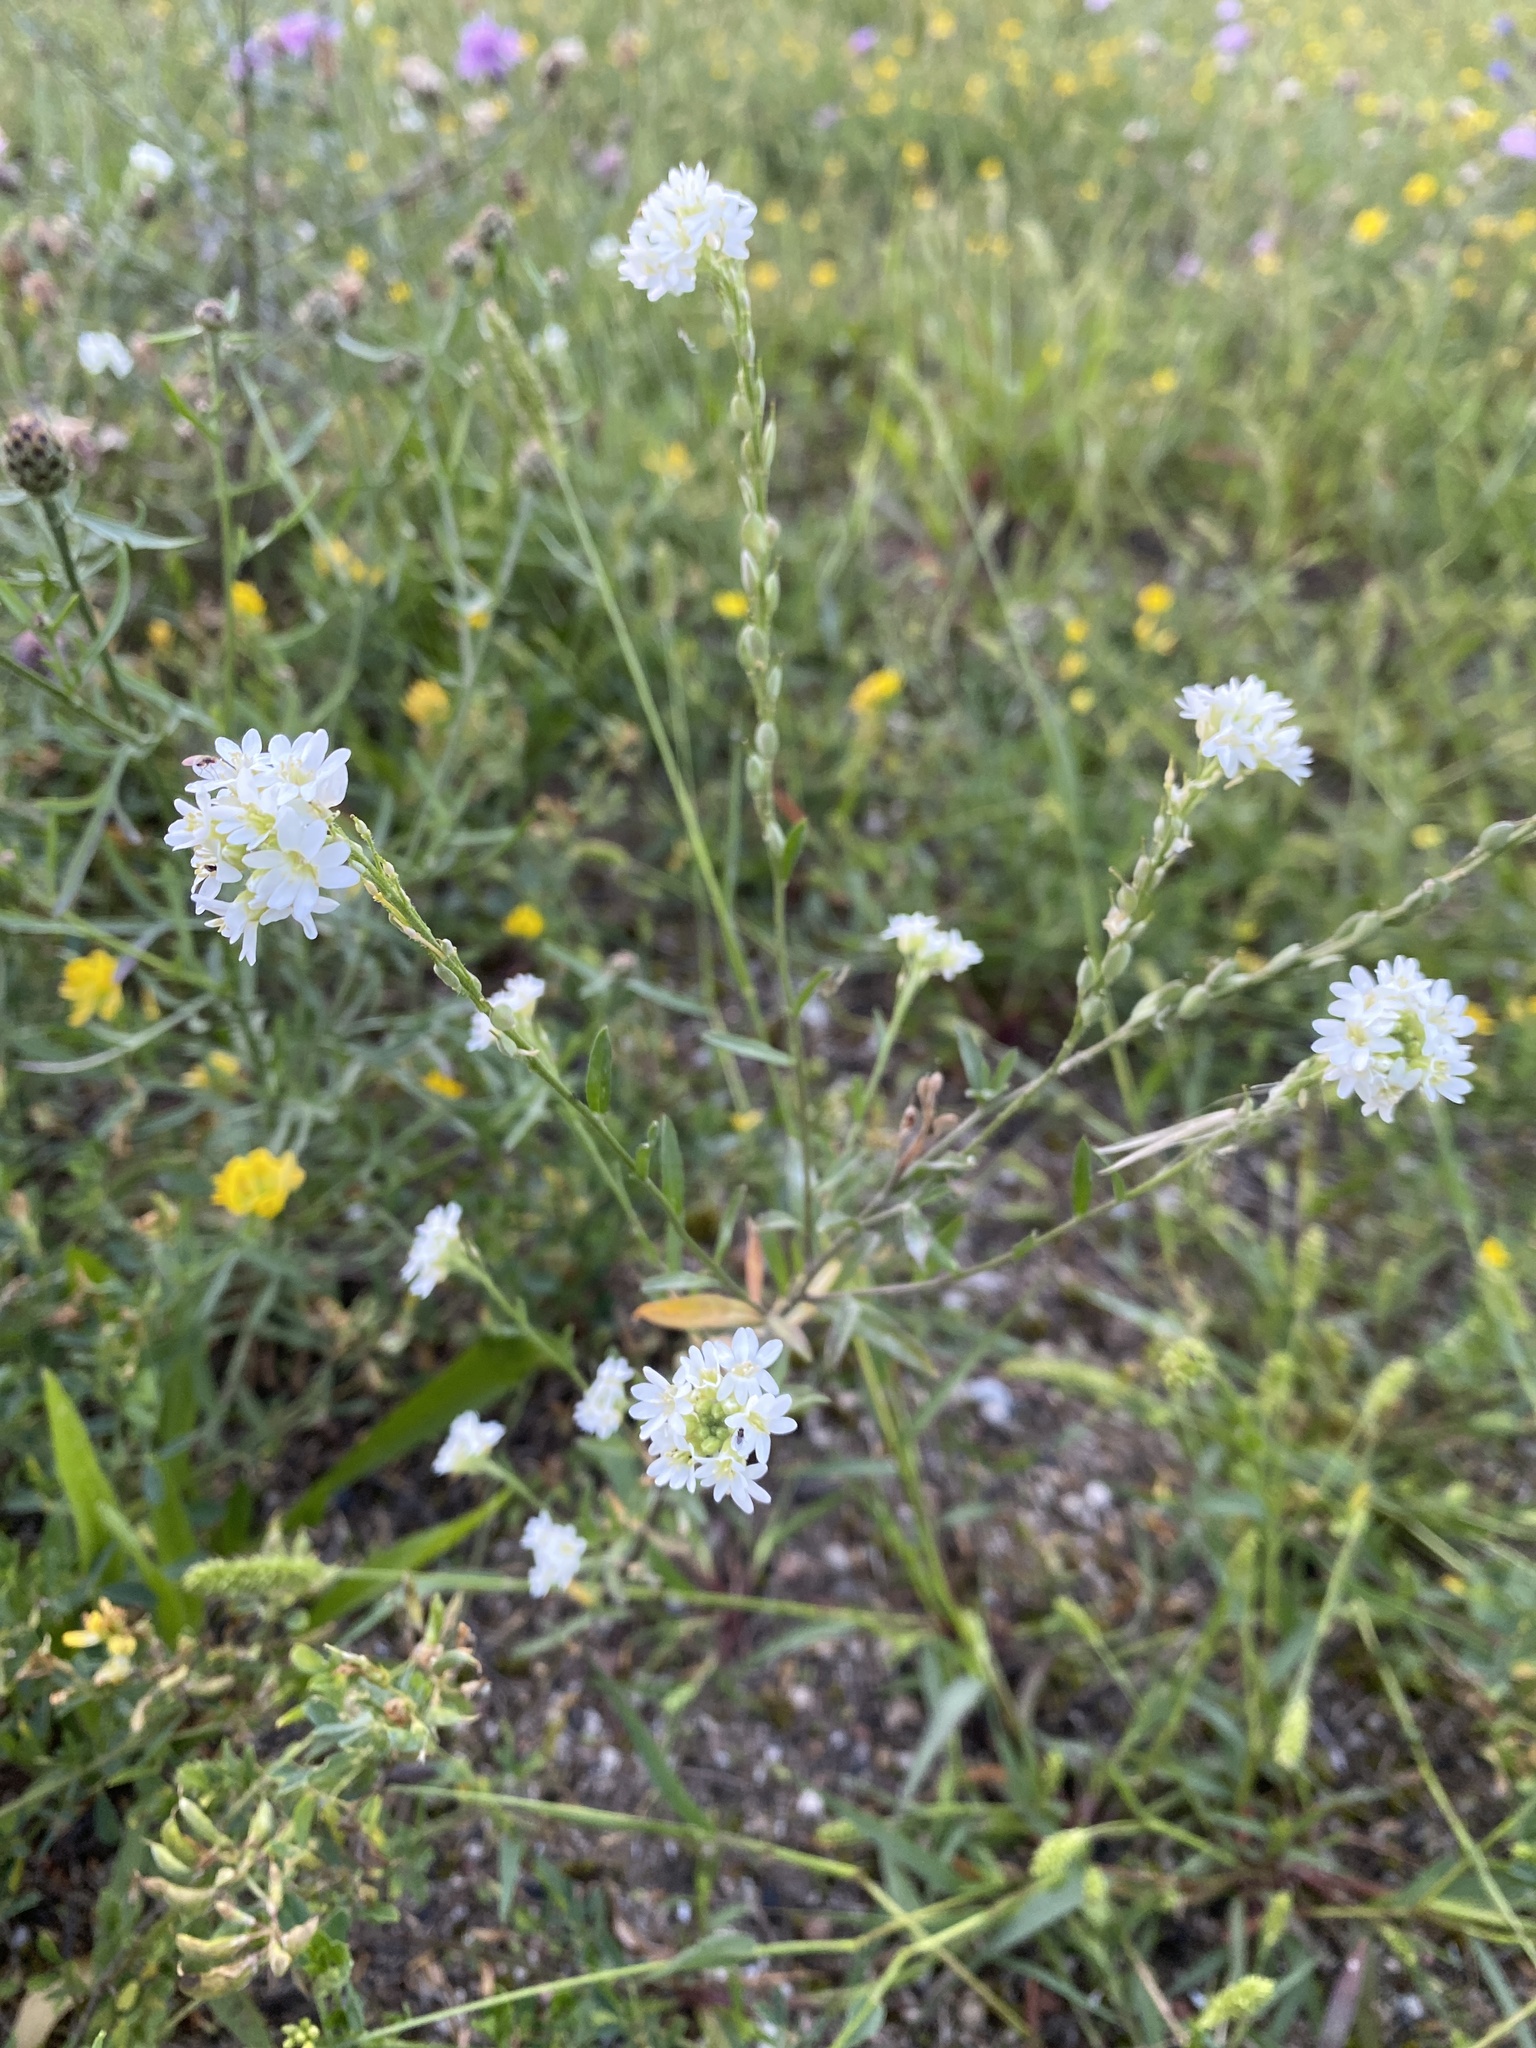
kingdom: Plantae
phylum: Tracheophyta
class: Magnoliopsida
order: Brassicales
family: Brassicaceae
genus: Berteroa
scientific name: Berteroa incana
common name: Hoary alison
